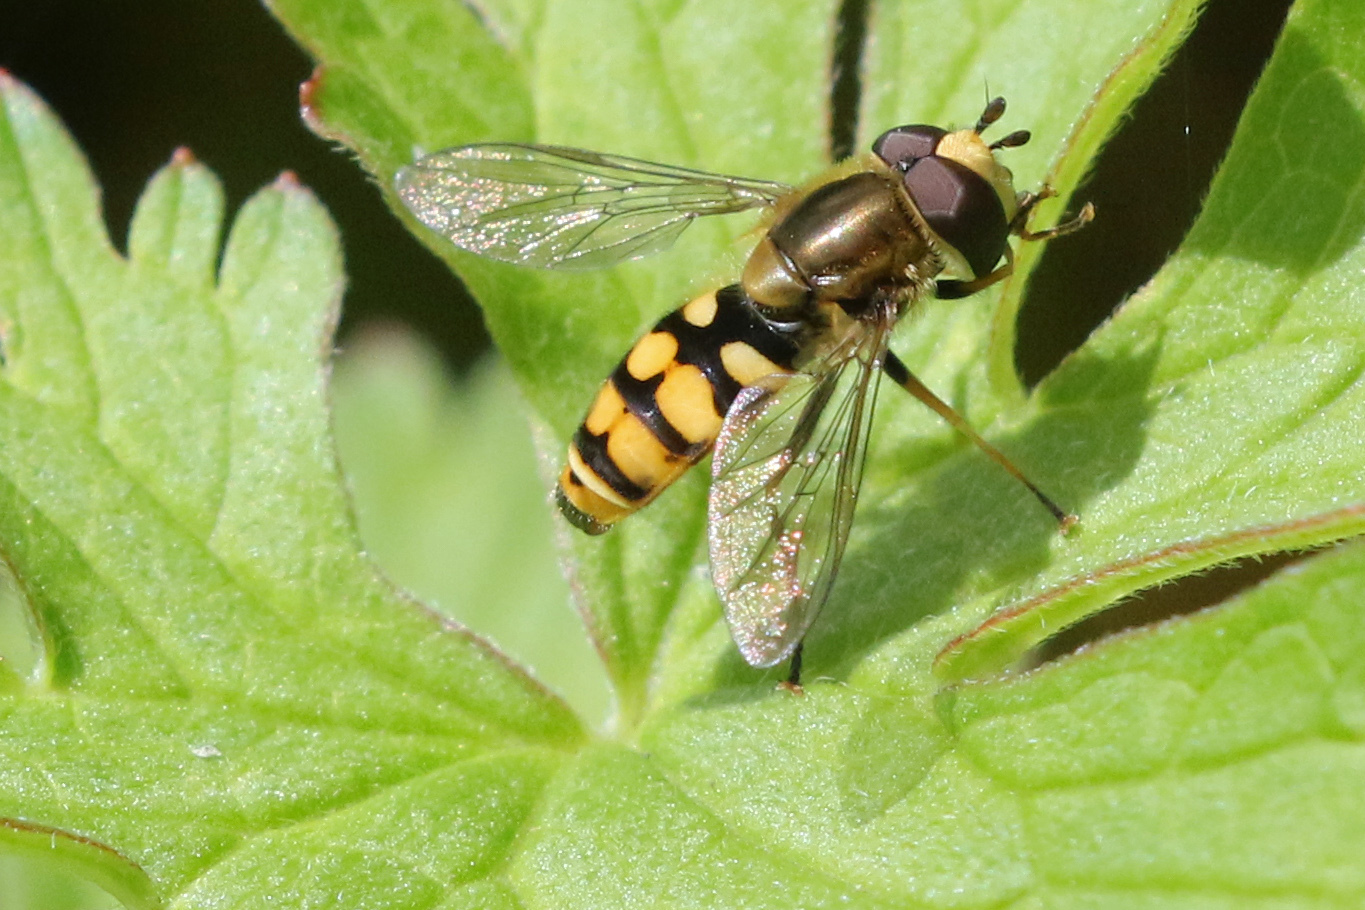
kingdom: Animalia
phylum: Arthropoda
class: Insecta
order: Diptera
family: Syrphidae
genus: Eupeodes
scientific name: Eupeodes corollae
